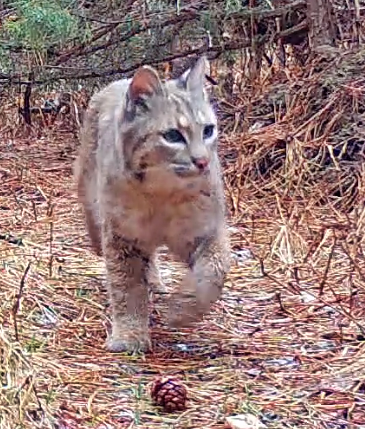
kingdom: Animalia
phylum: Chordata
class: Mammalia
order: Carnivora
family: Felidae
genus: Lynx
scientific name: Lynx rufus
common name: Bobcat
